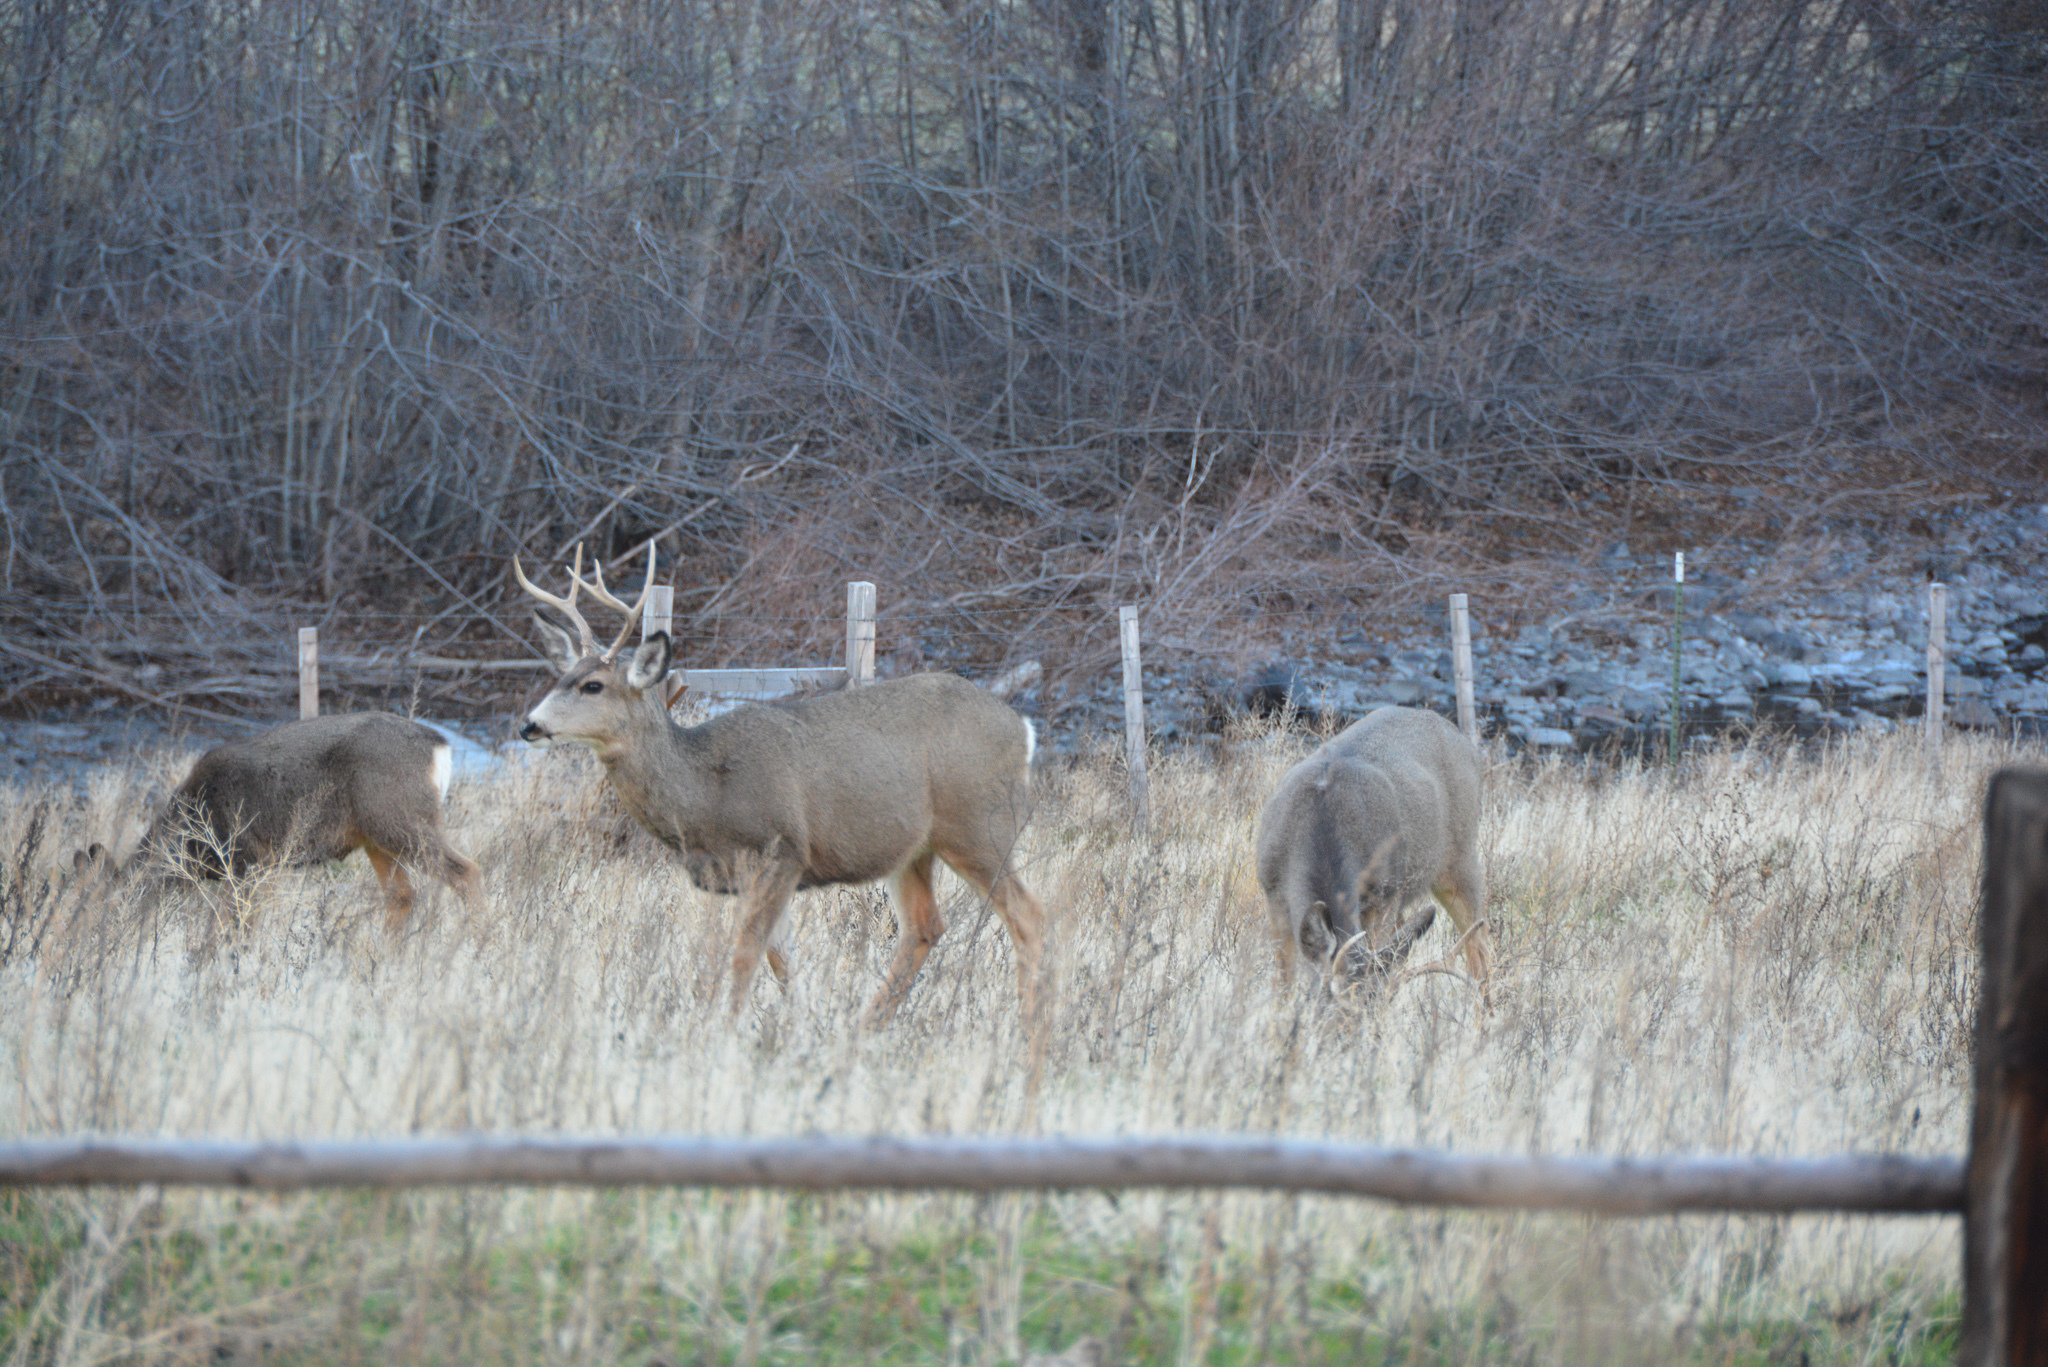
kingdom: Animalia
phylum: Chordata
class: Mammalia
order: Artiodactyla
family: Cervidae
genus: Odocoileus
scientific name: Odocoileus hemionus
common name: Mule deer
